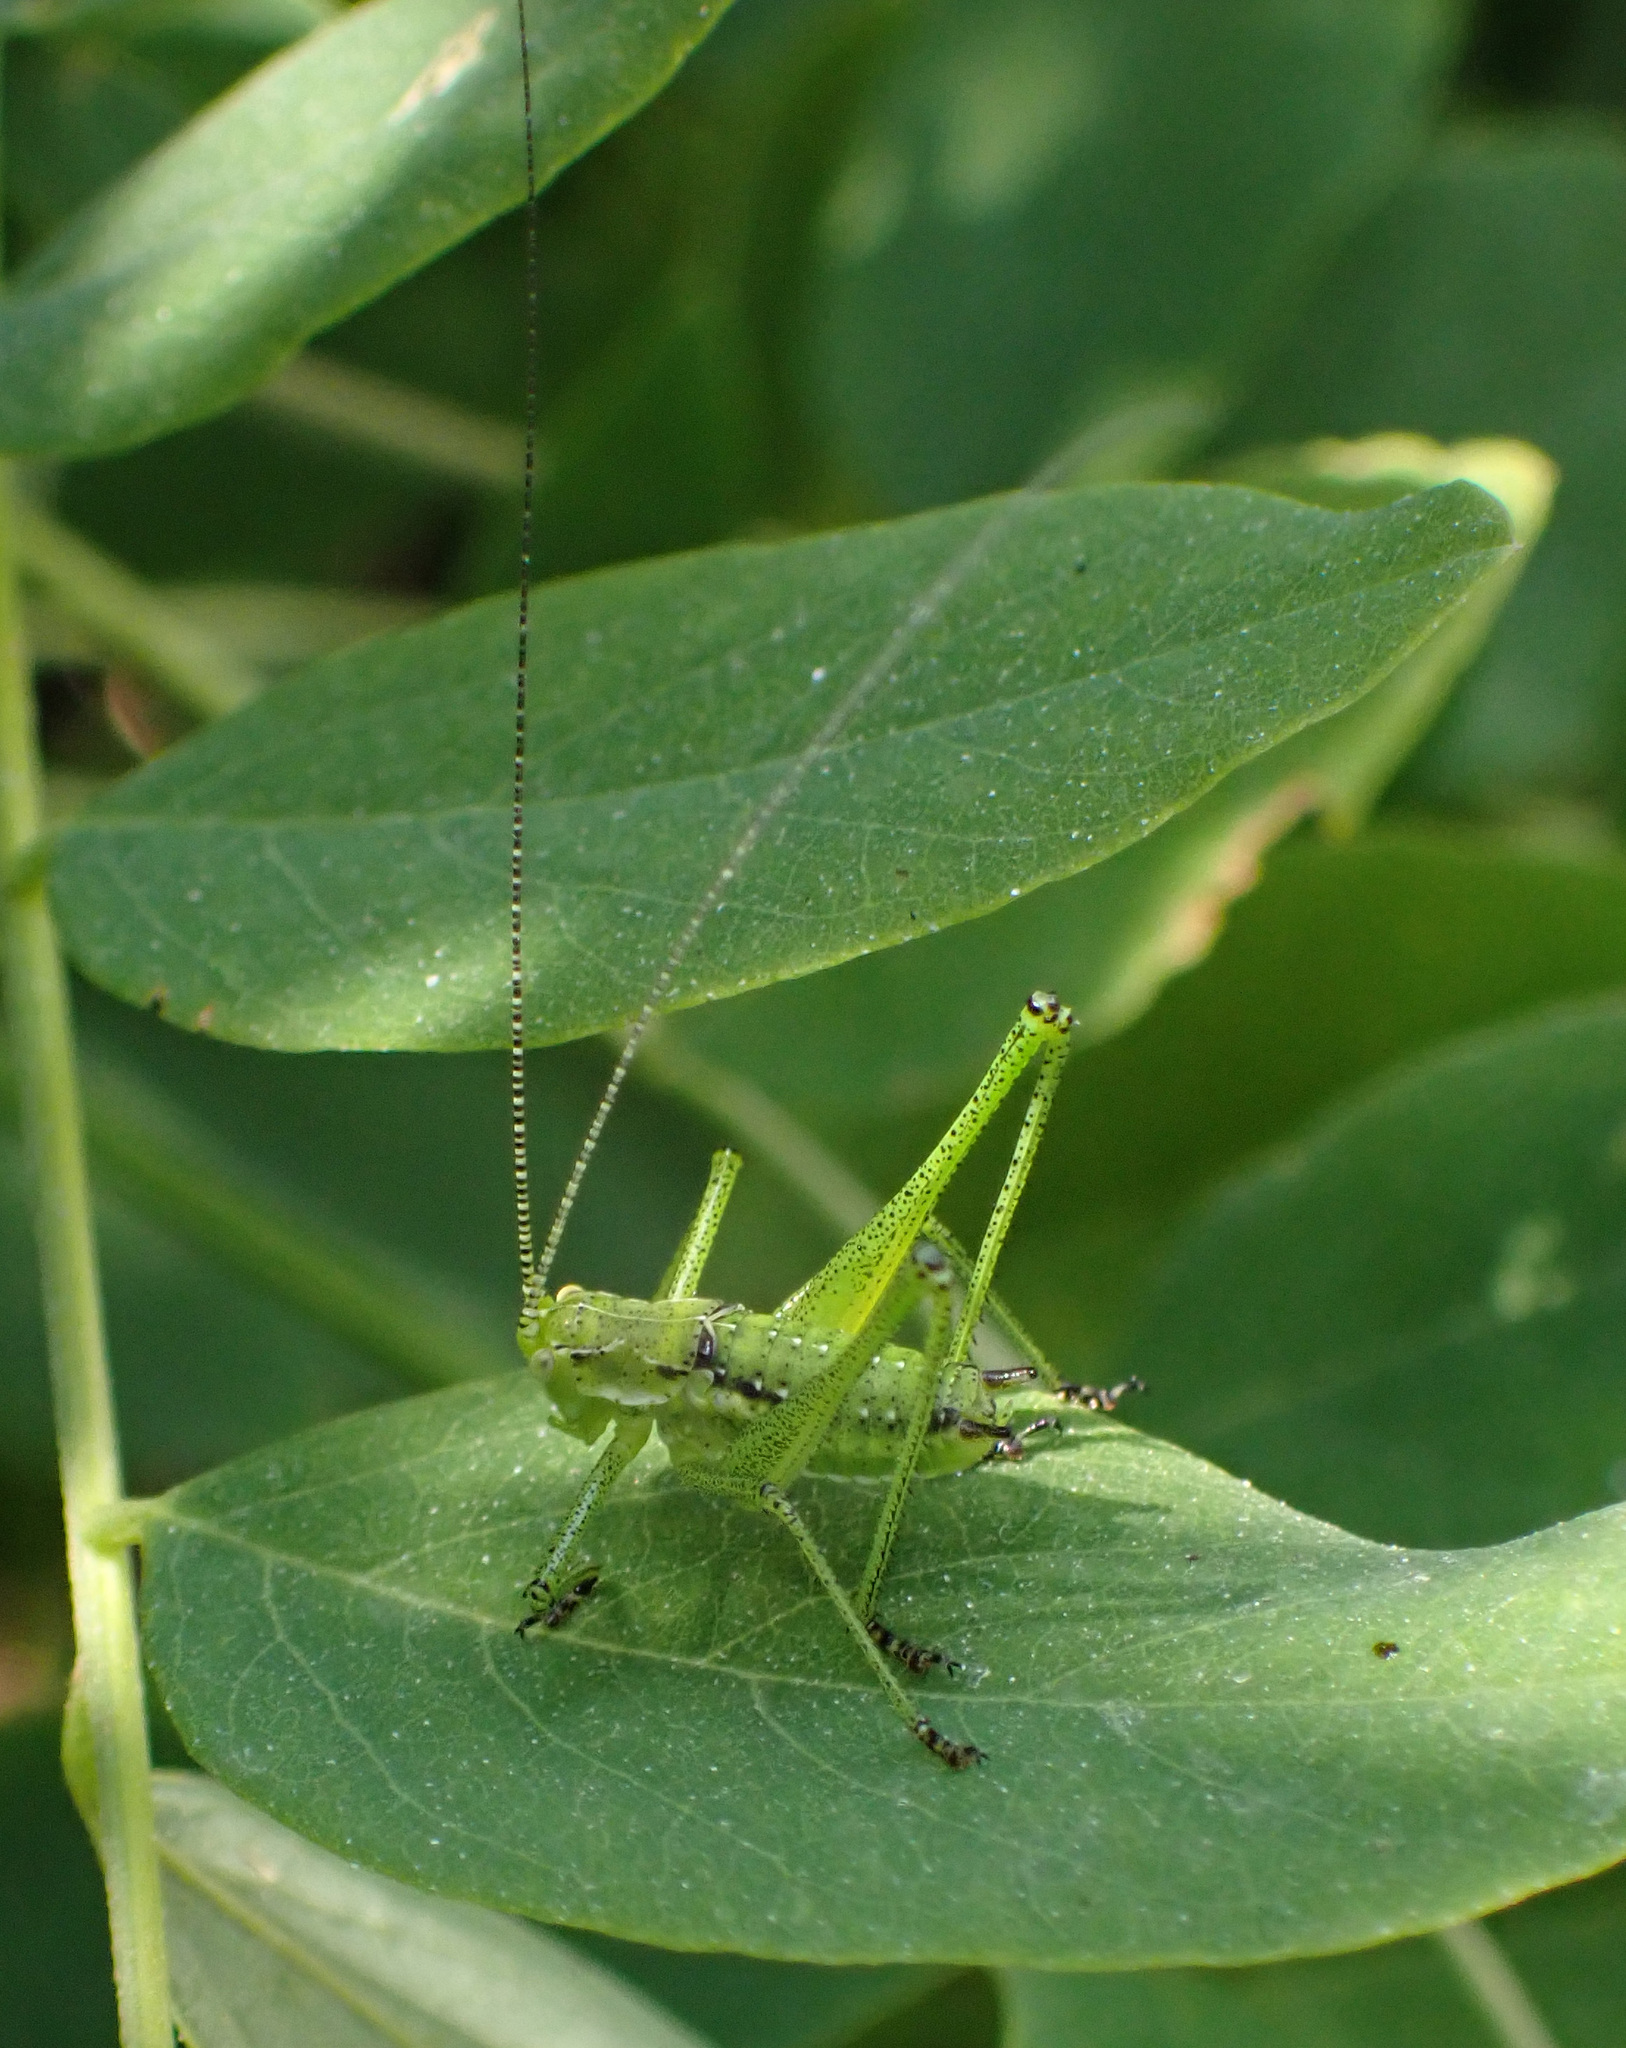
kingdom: Animalia
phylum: Arthropoda
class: Insecta
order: Orthoptera
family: Tettigoniidae
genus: Leptophyes
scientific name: Leptophyes albovittata
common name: Striped bush-cricket
